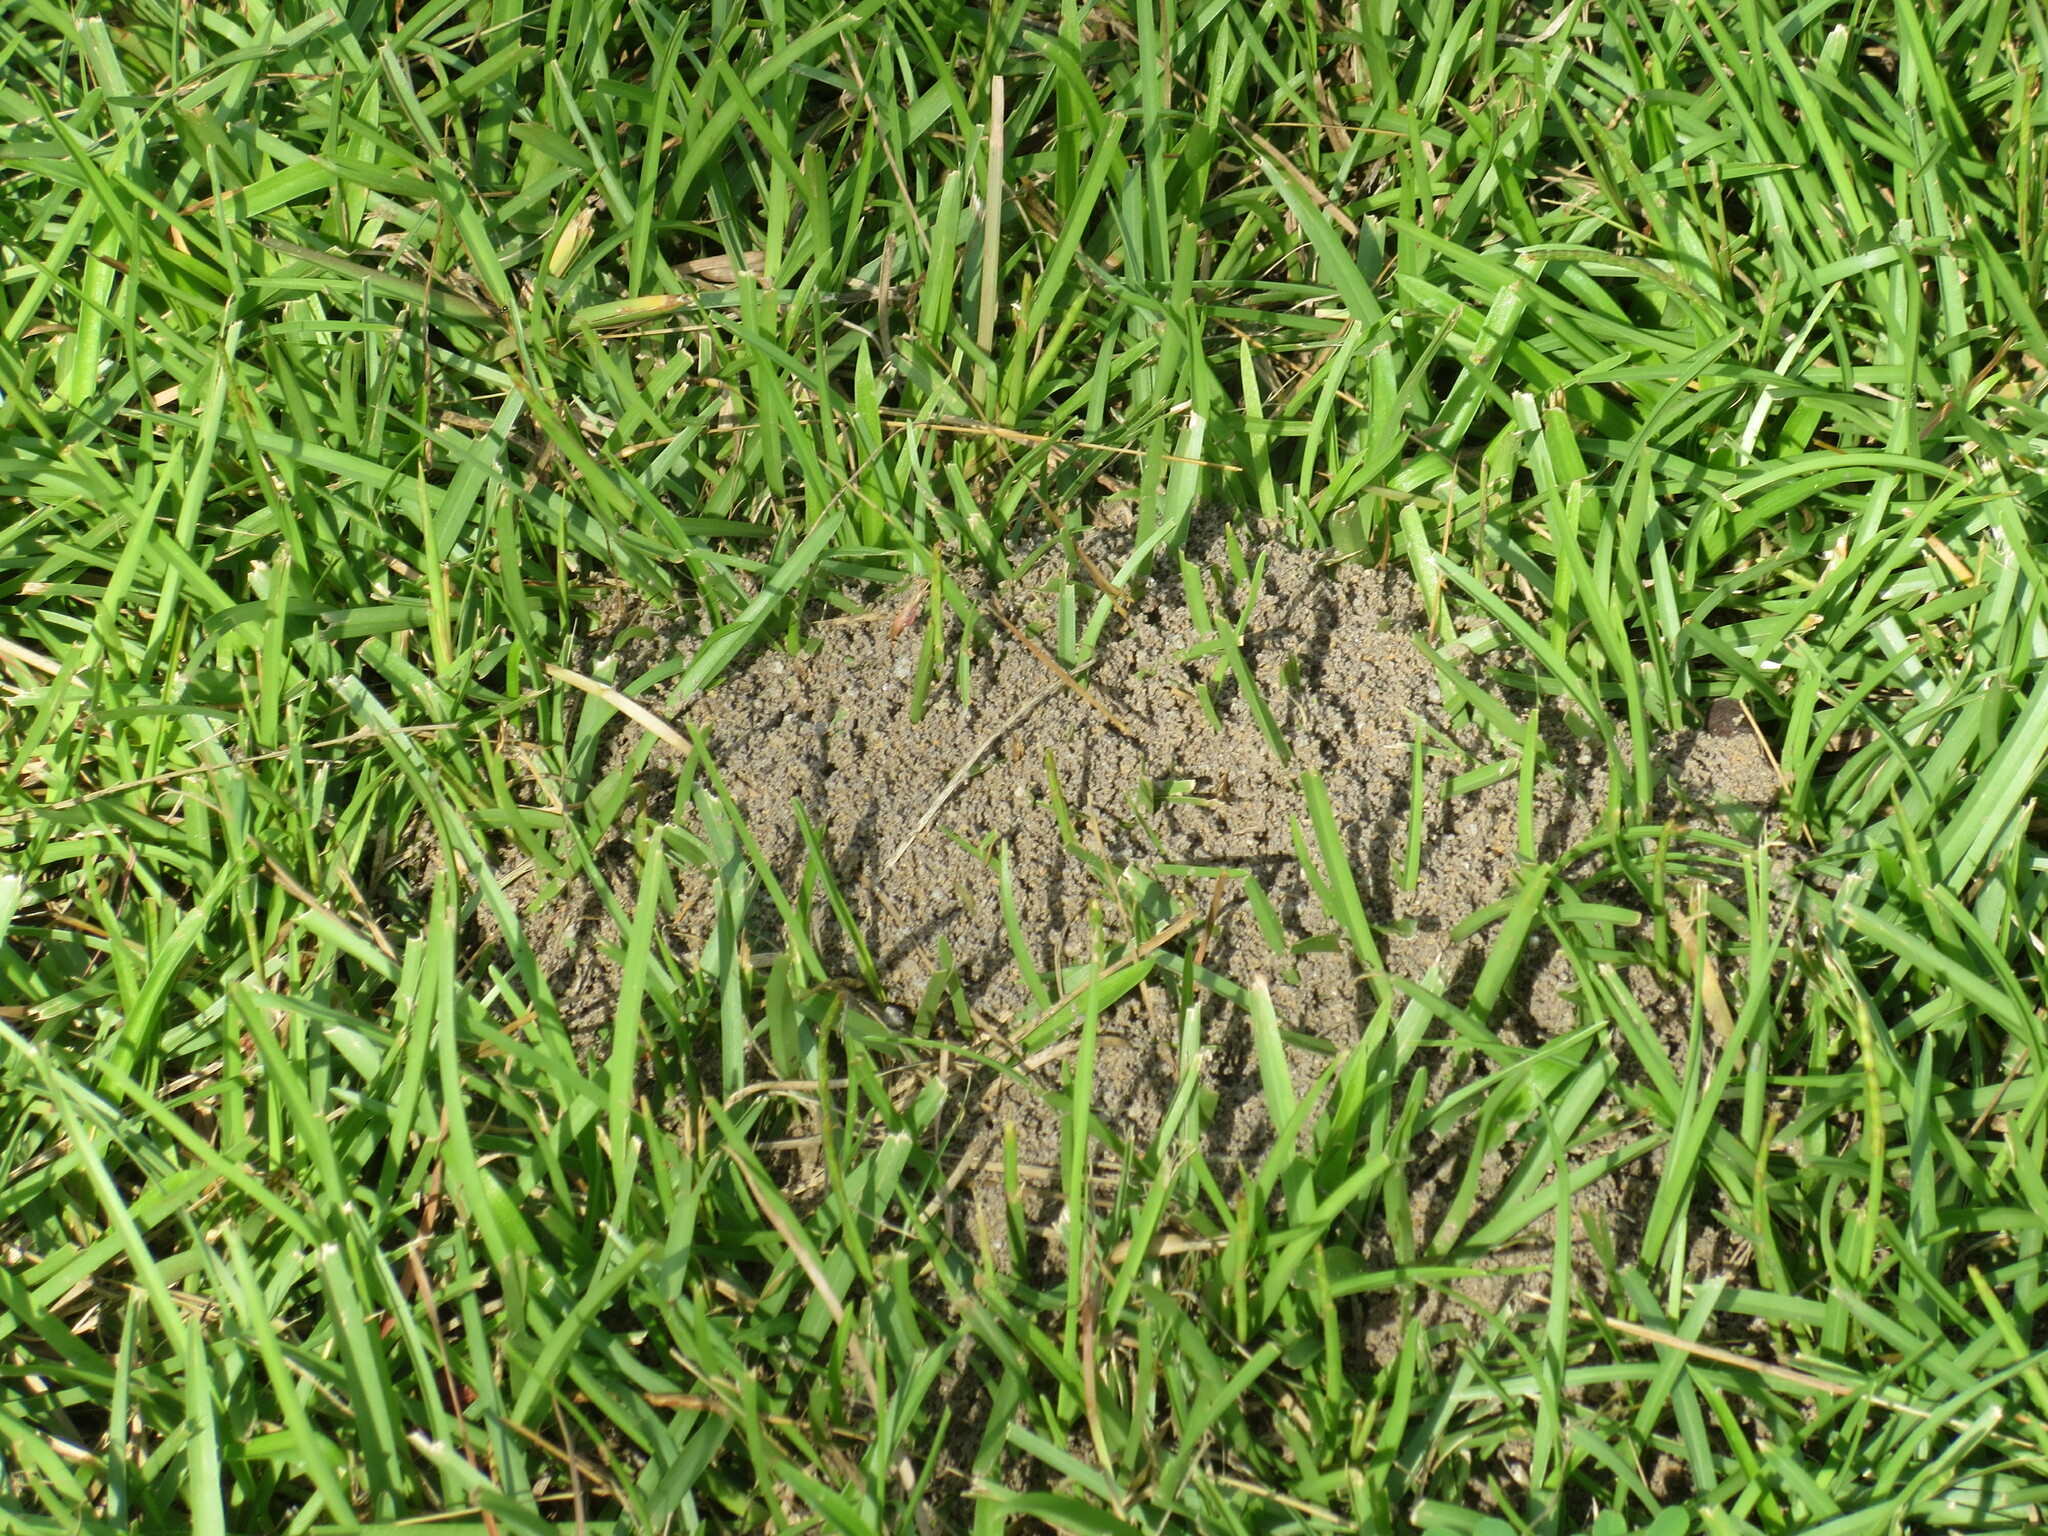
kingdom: Animalia
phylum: Arthropoda
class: Insecta
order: Hymenoptera
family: Formicidae
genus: Solenopsis
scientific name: Solenopsis invicta
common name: Red imported fire ant
